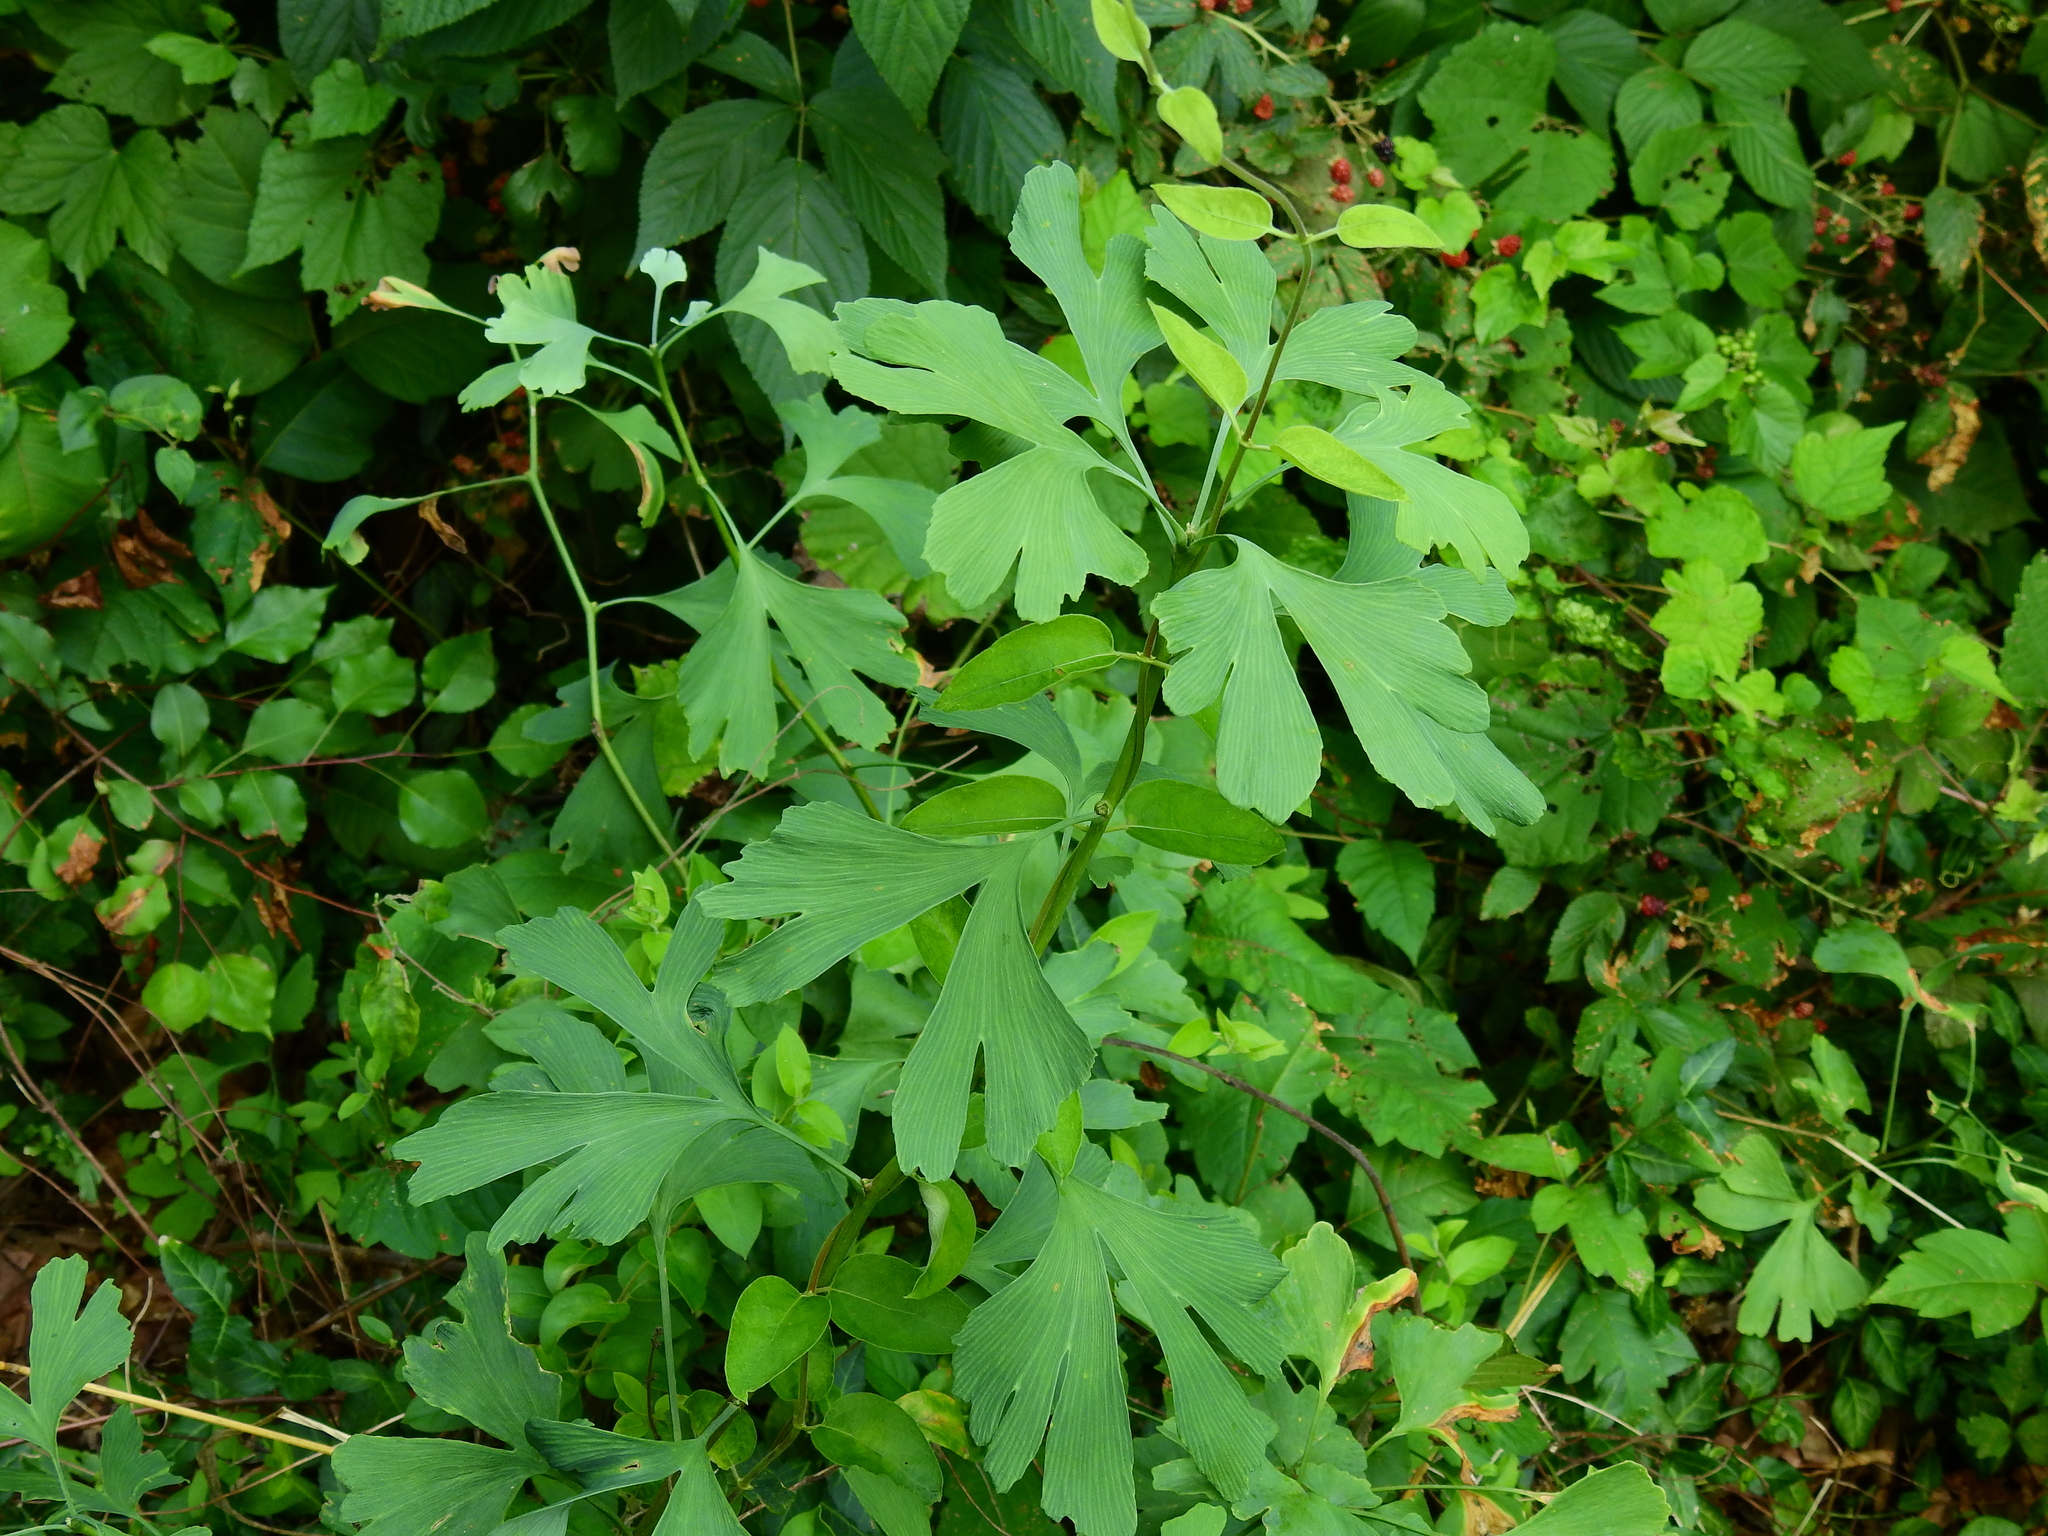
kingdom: Plantae
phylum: Tracheophyta
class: Ginkgoopsida
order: Ginkgoales
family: Ginkgoaceae
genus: Ginkgo
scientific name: Ginkgo biloba
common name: Ginkgo
